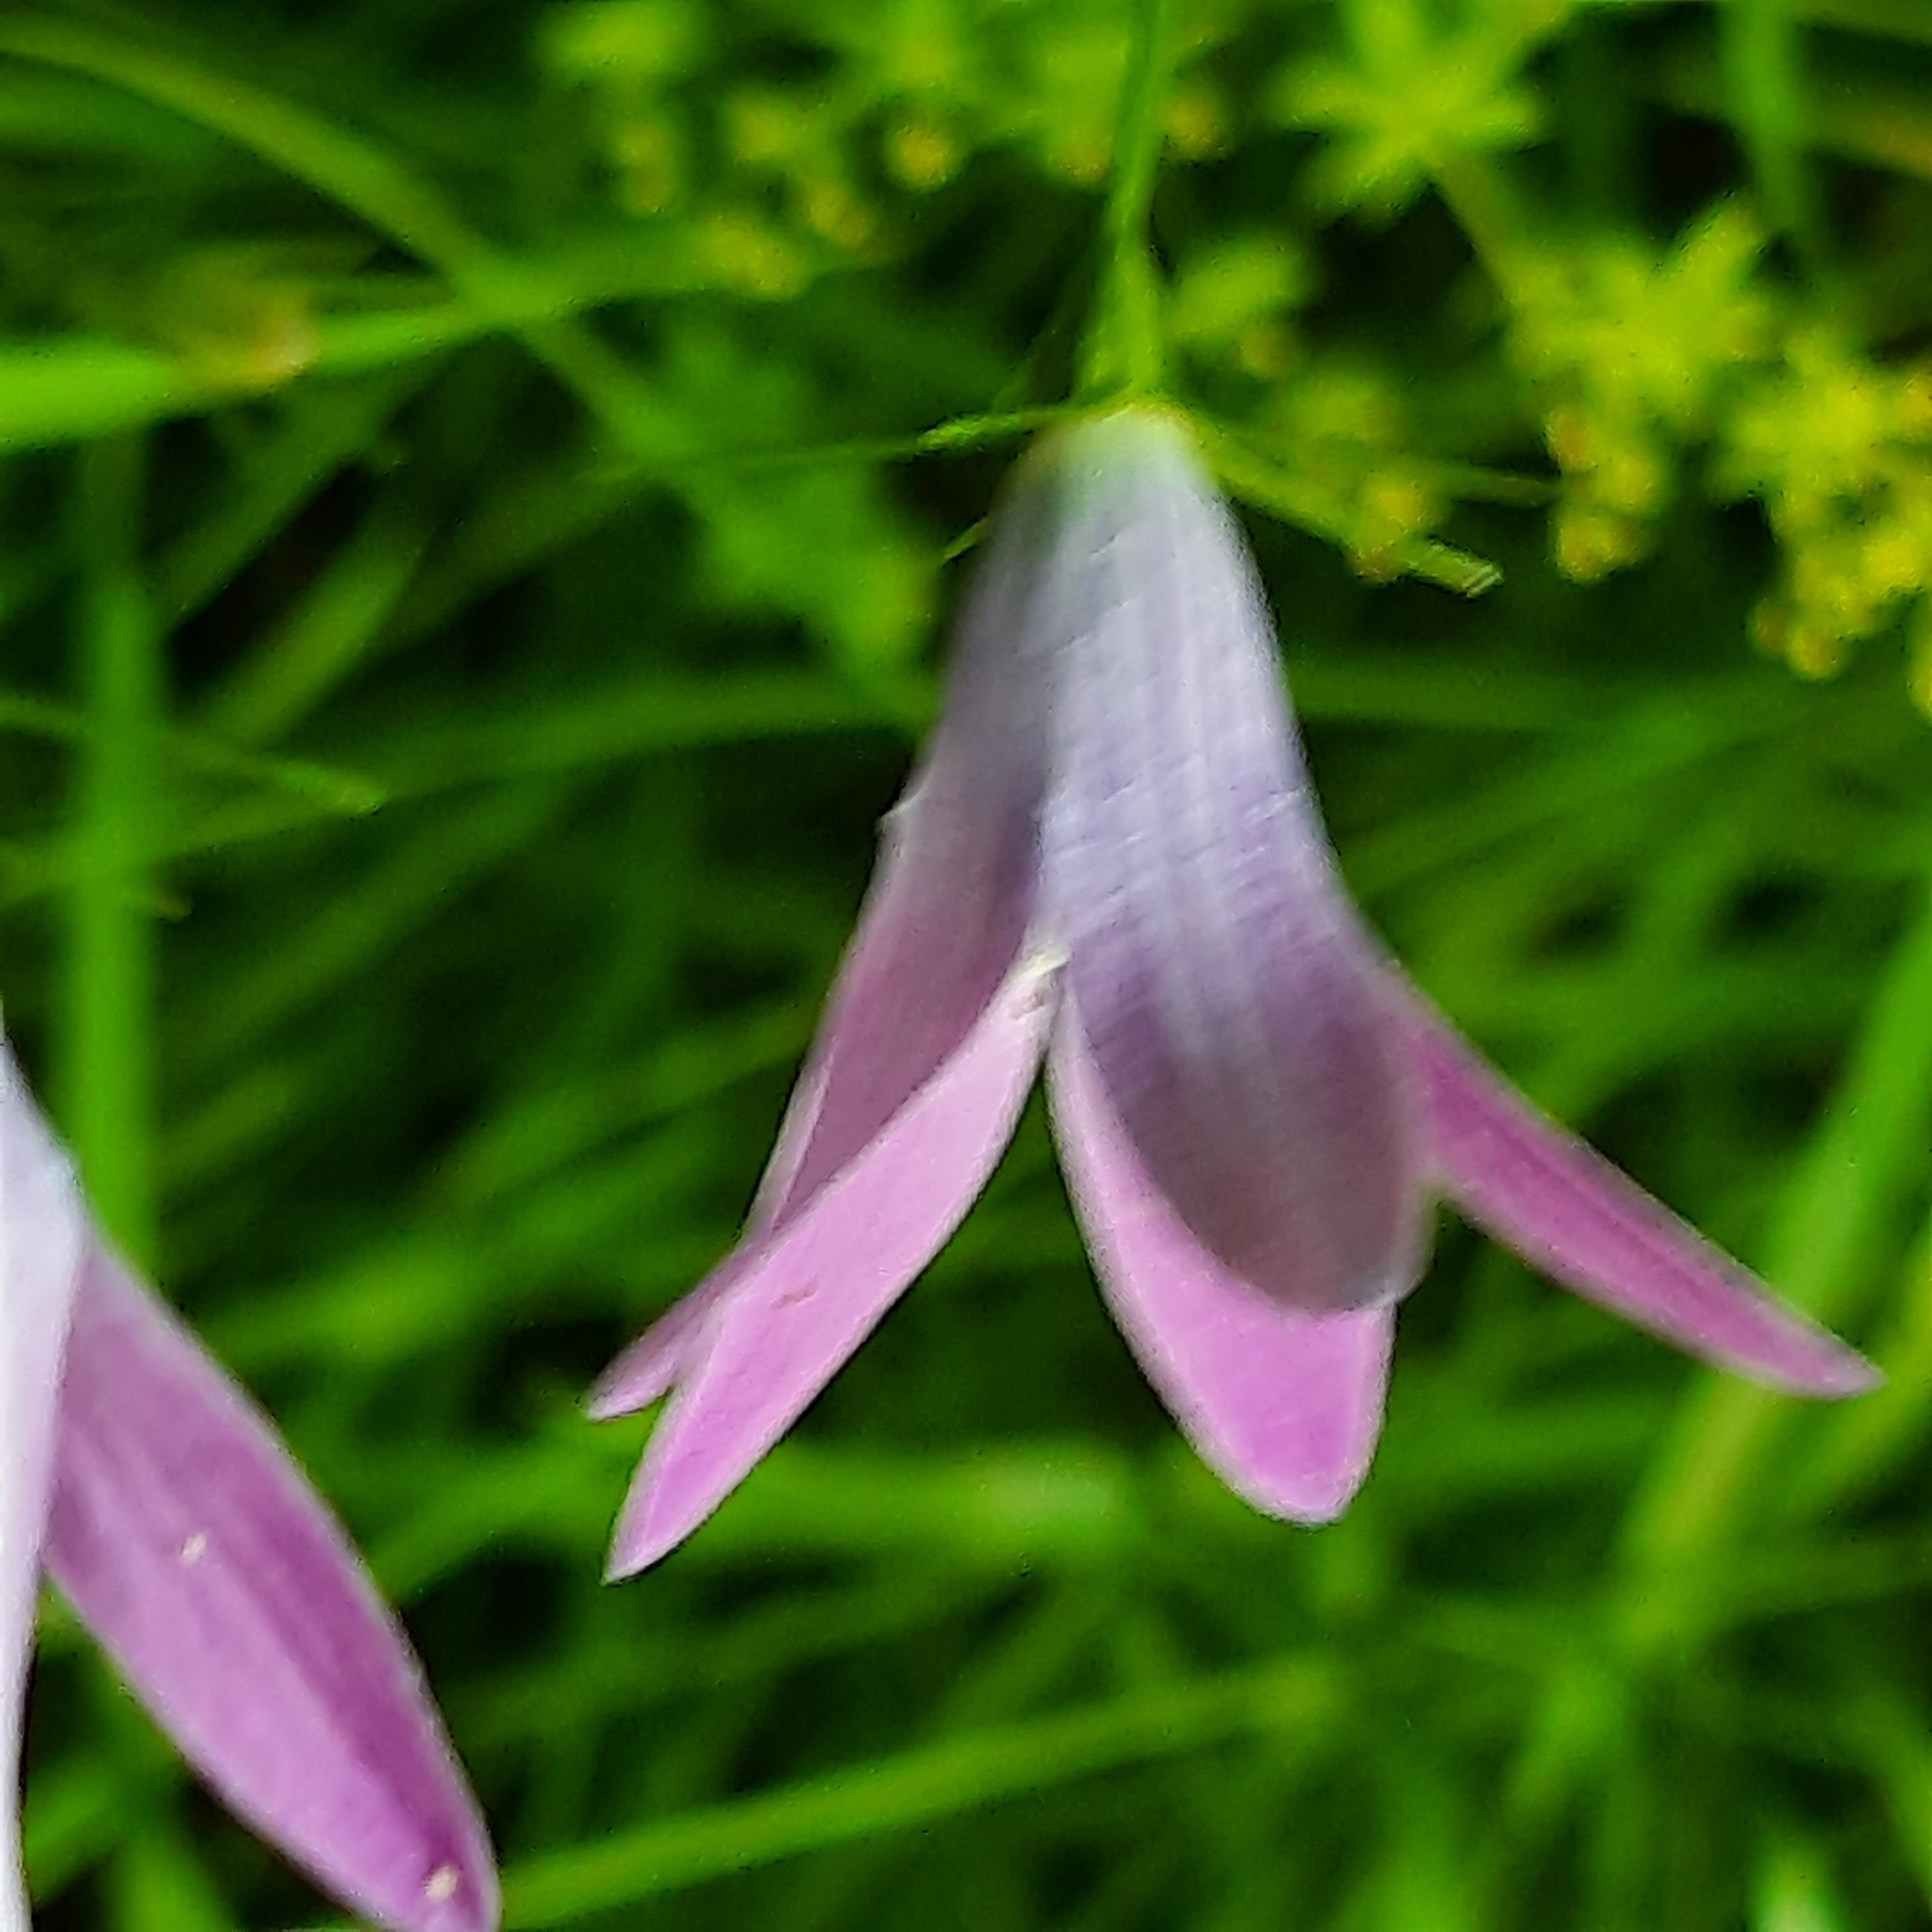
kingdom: Plantae
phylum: Tracheophyta
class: Magnoliopsida
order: Asterales
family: Campanulaceae
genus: Campanula
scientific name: Campanula patula
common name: Spreading bellflower
